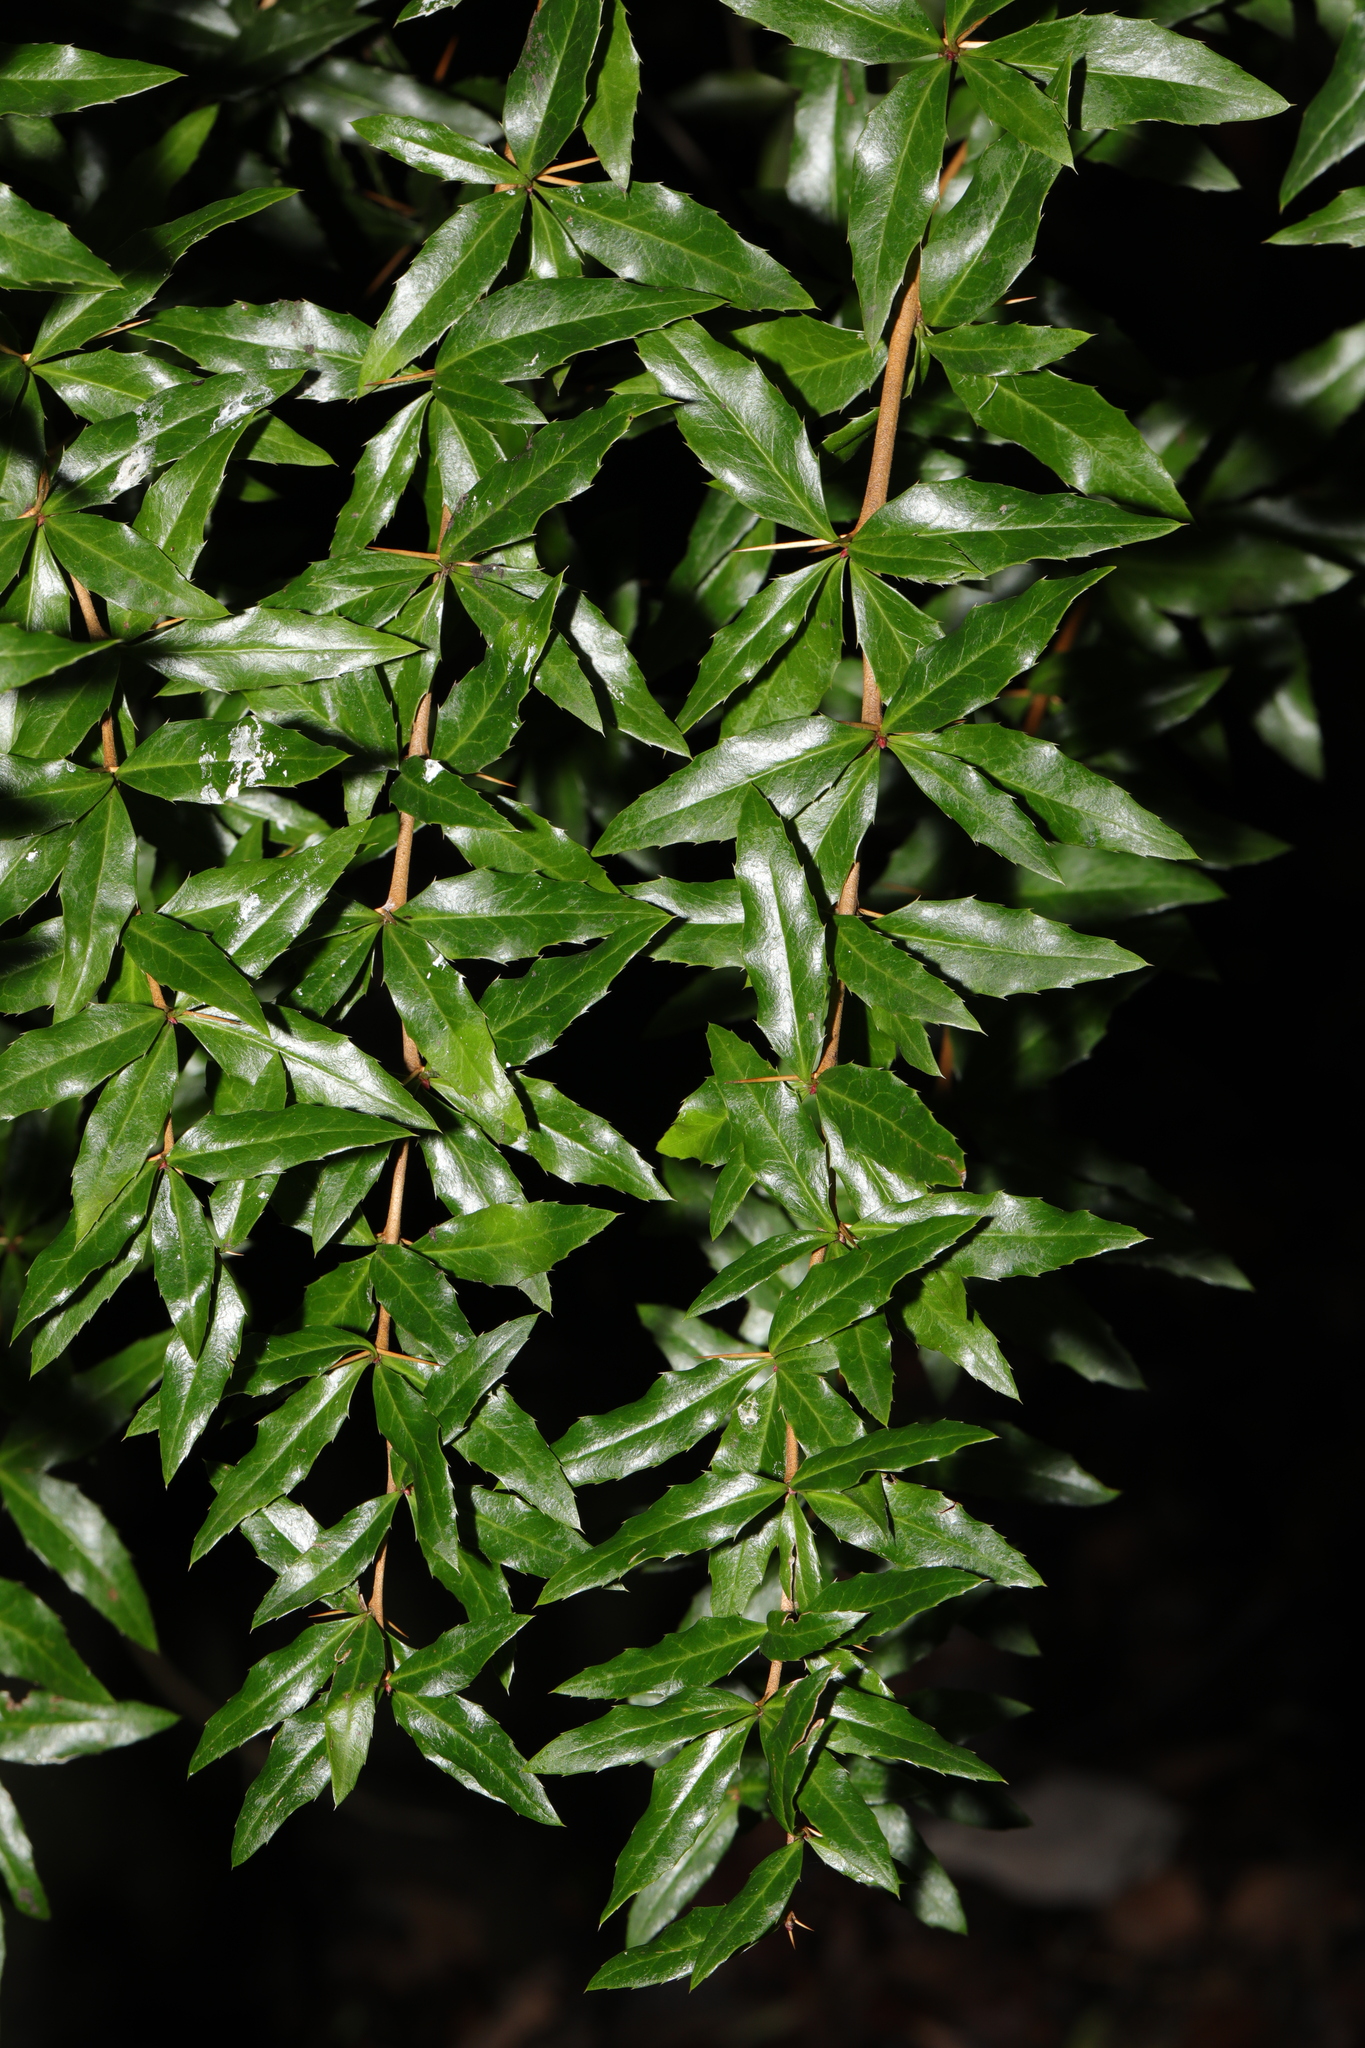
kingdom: Plantae
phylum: Tracheophyta
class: Magnoliopsida
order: Ranunculales
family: Berberidaceae
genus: Berberis
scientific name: Berberis
